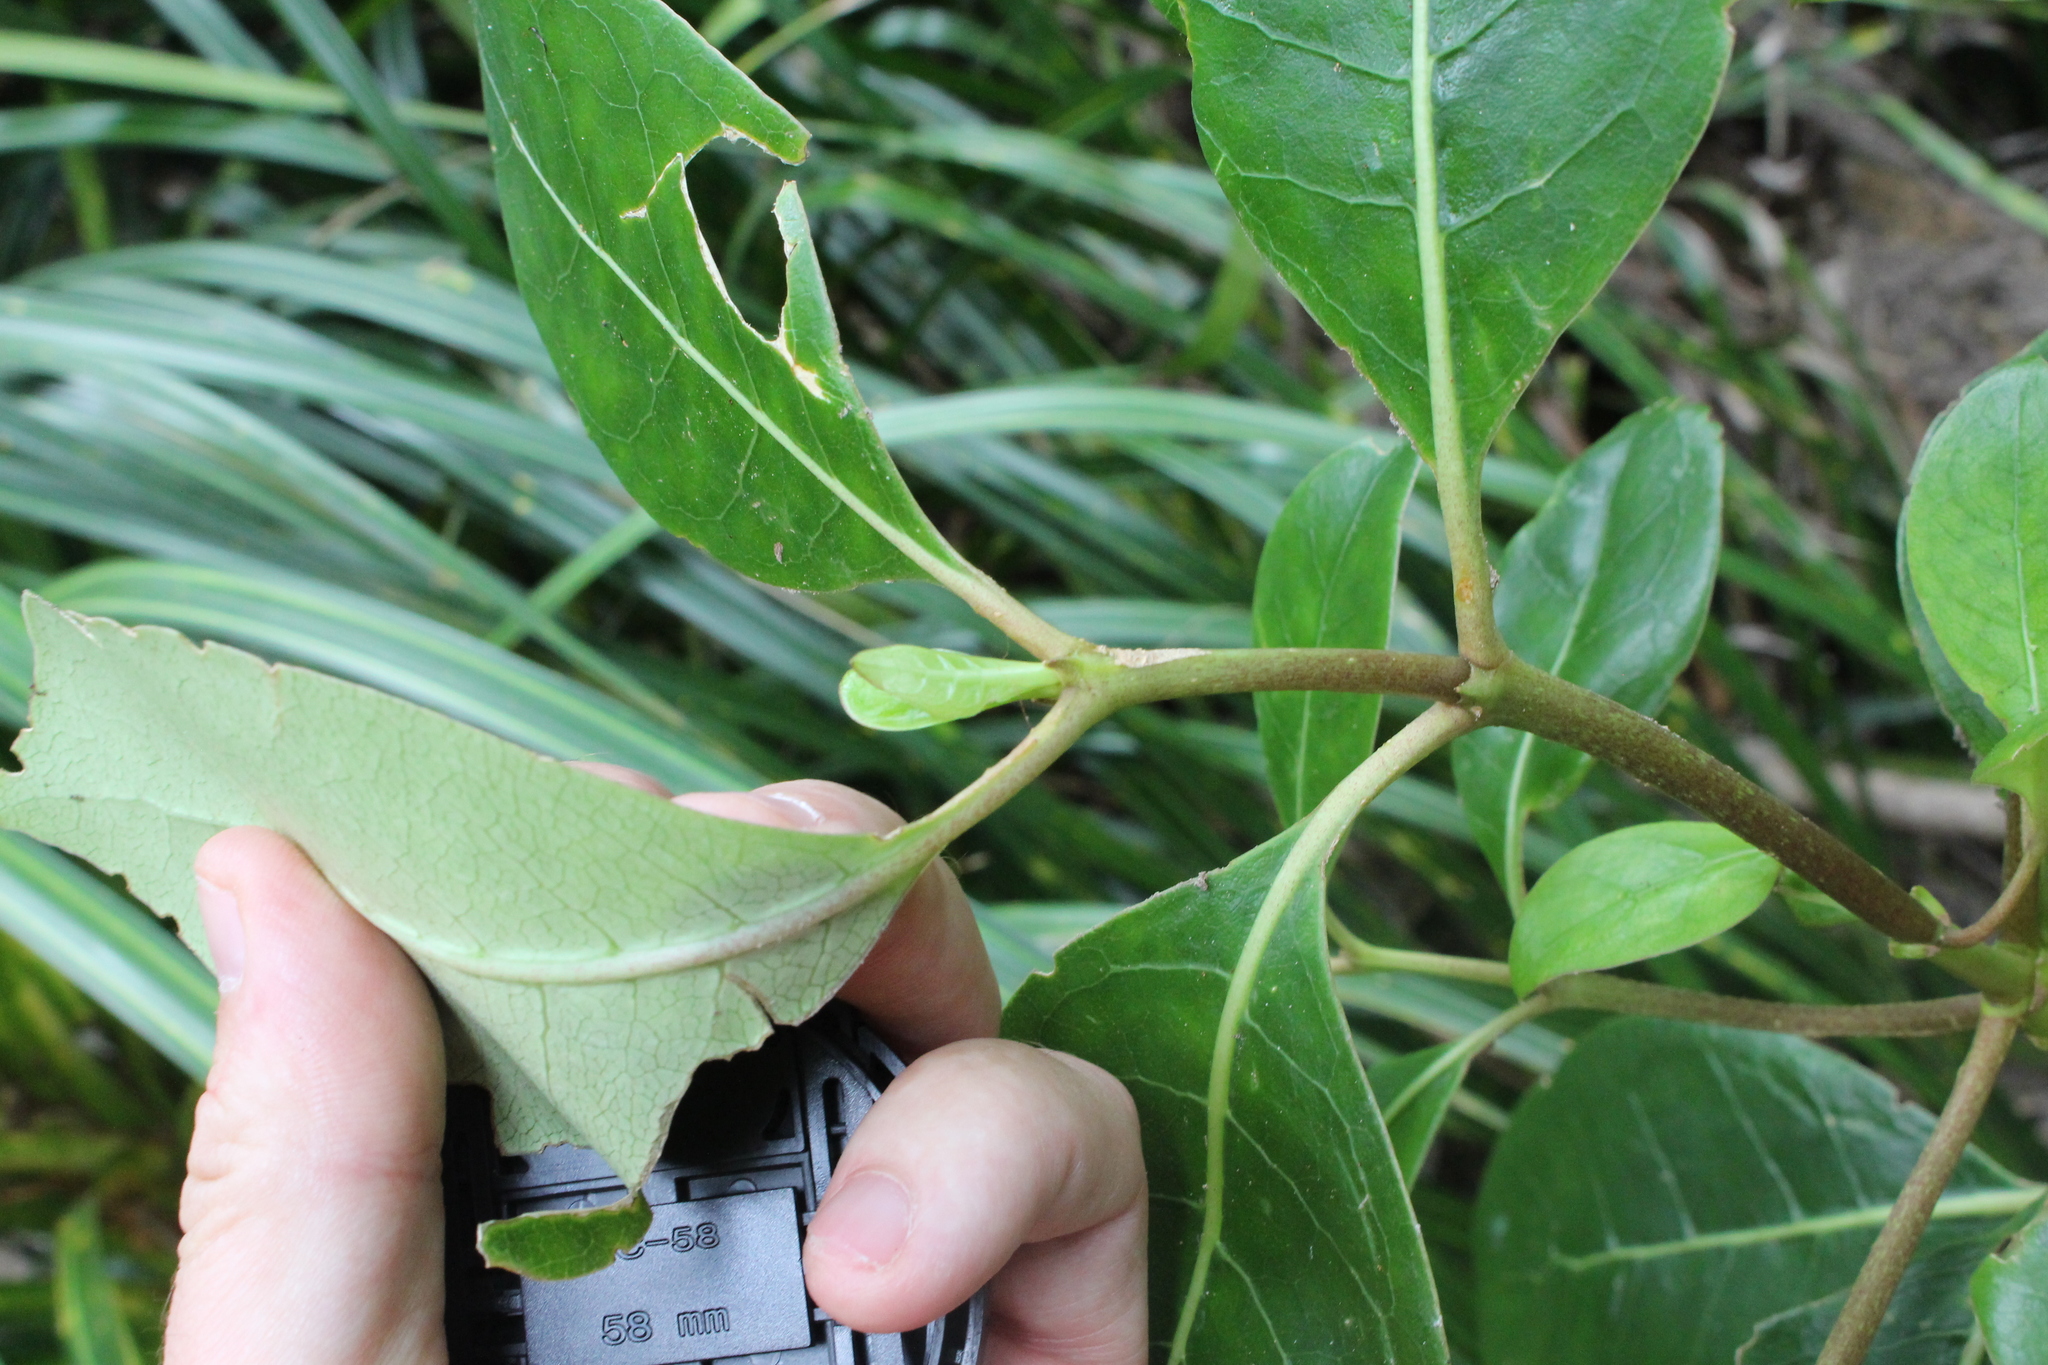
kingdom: Plantae
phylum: Tracheophyta
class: Magnoliopsida
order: Gentianales
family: Rubiaceae
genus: Coprosma
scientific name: Coprosma lucida
